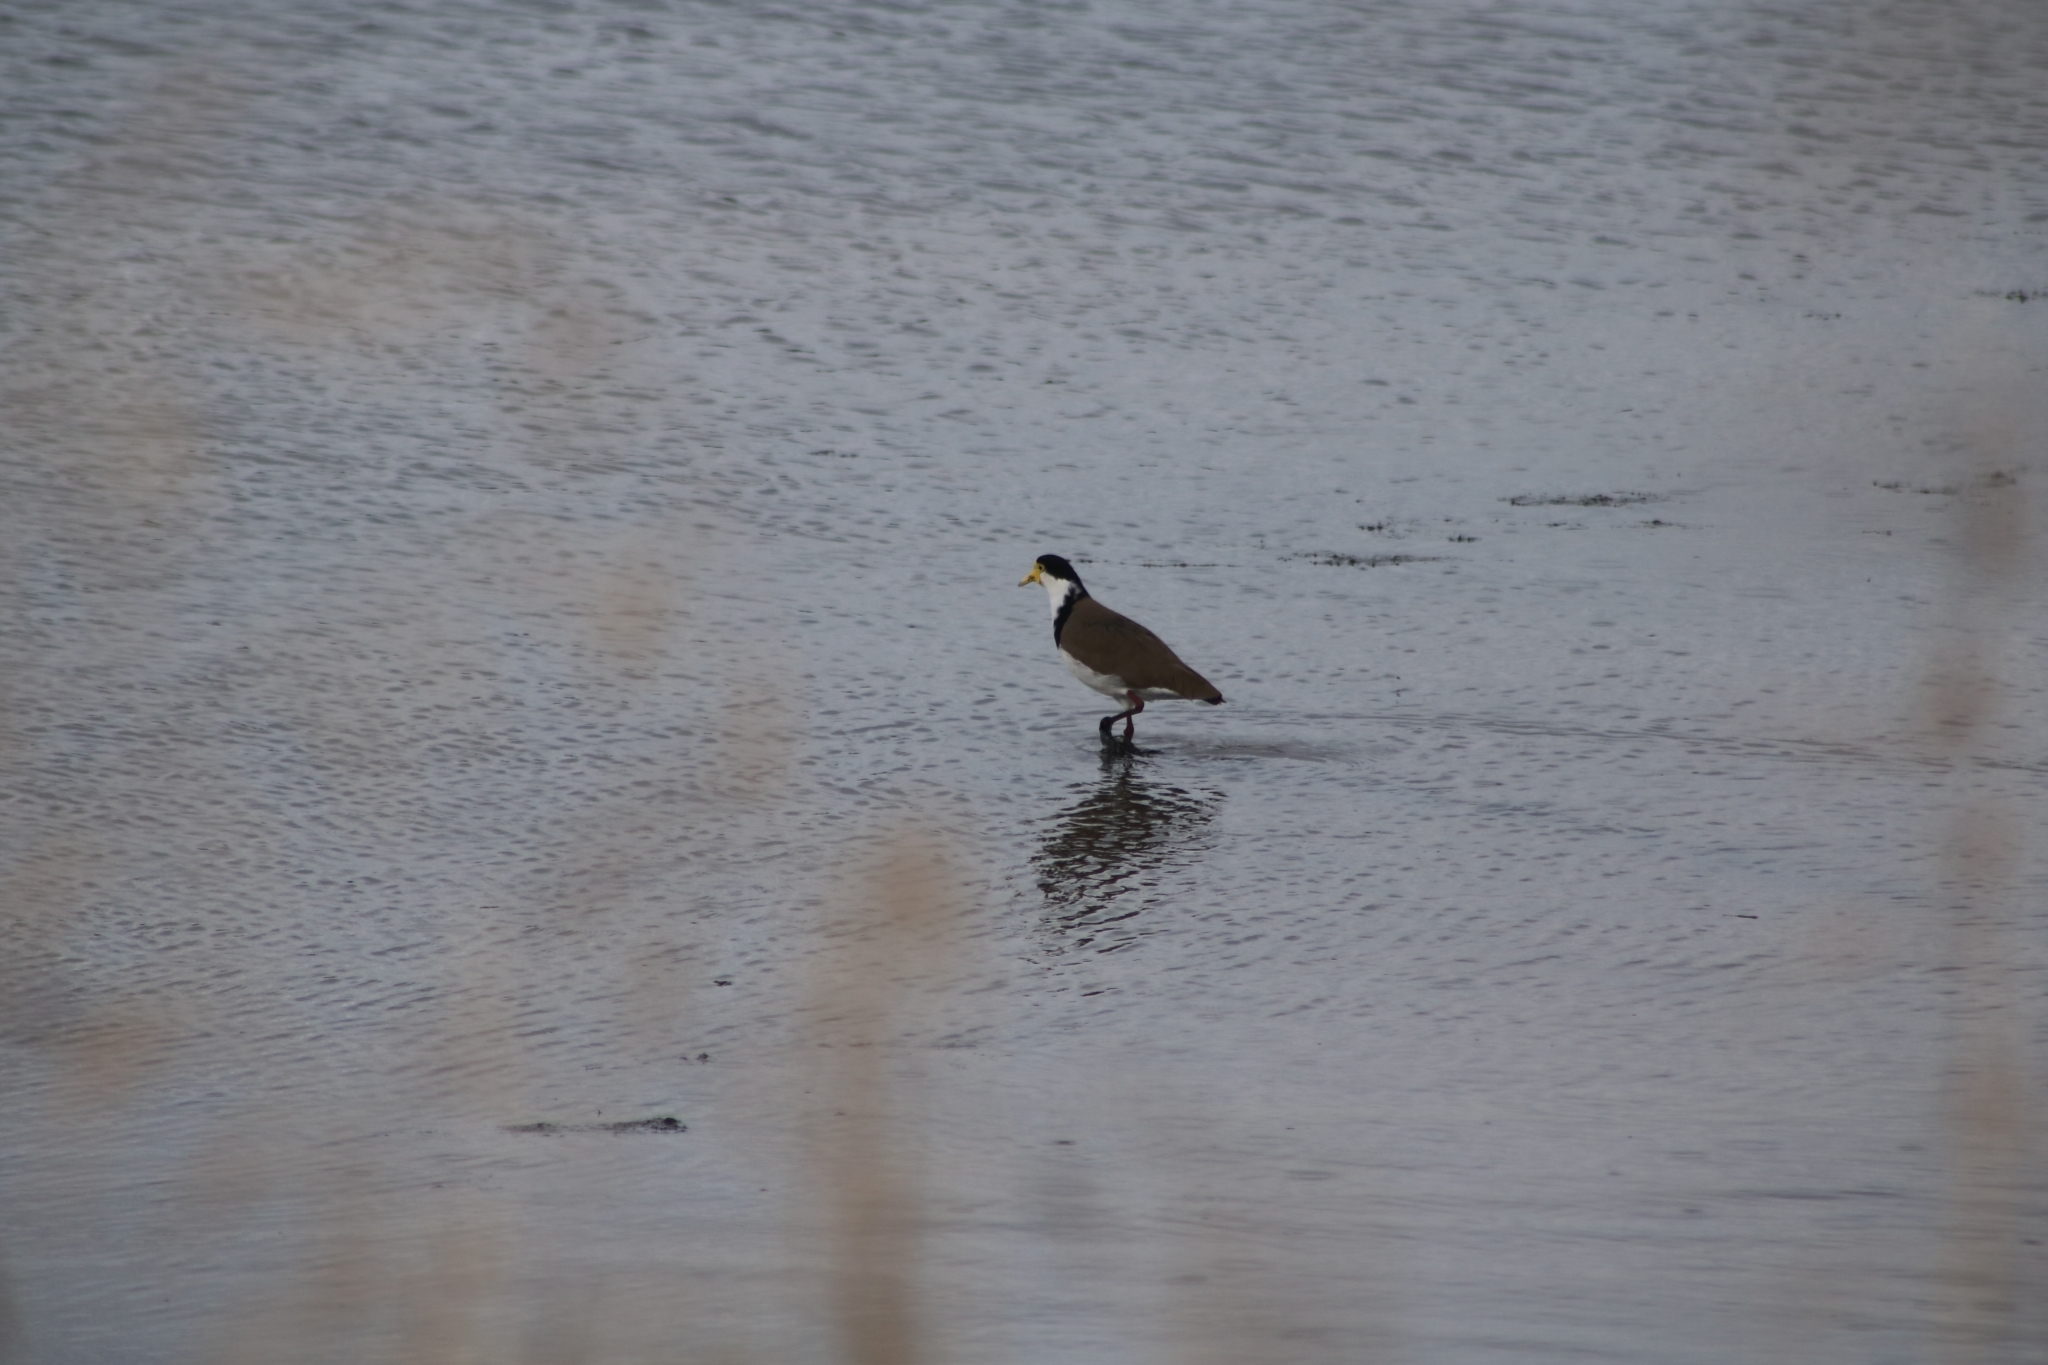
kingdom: Animalia
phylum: Chordata
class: Aves
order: Charadriiformes
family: Charadriidae
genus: Vanellus
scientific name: Vanellus miles
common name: Masked lapwing
